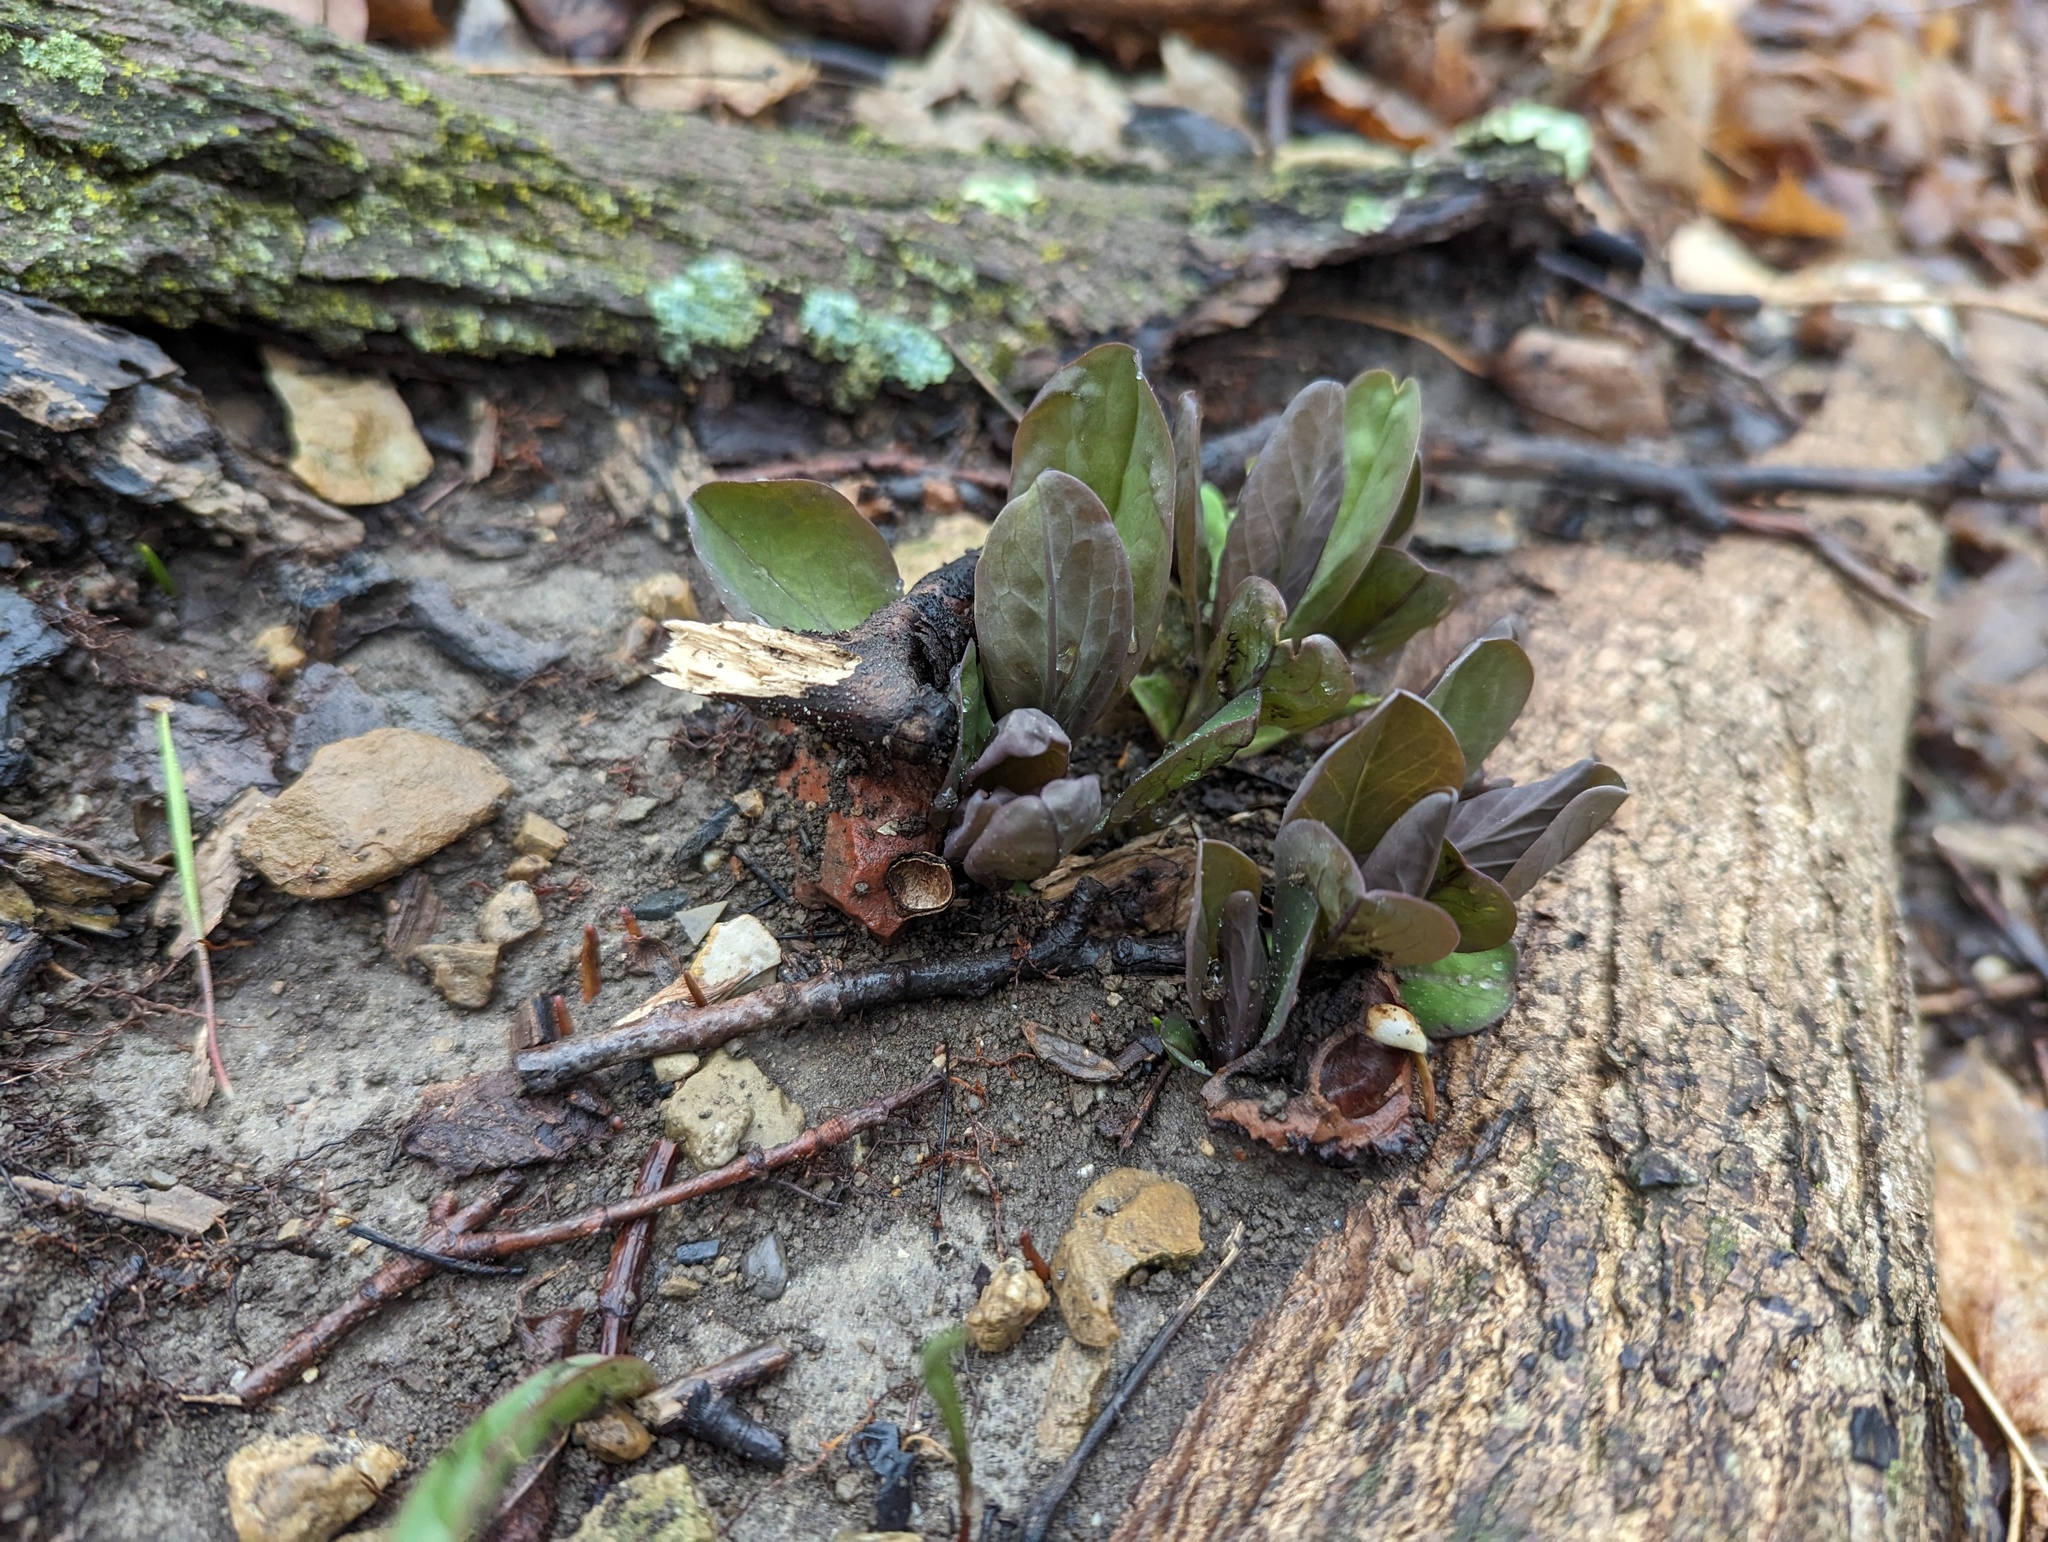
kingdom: Plantae
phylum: Tracheophyta
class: Magnoliopsida
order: Boraginales
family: Boraginaceae
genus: Mertensia
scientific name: Mertensia virginica
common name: Virginia bluebells
